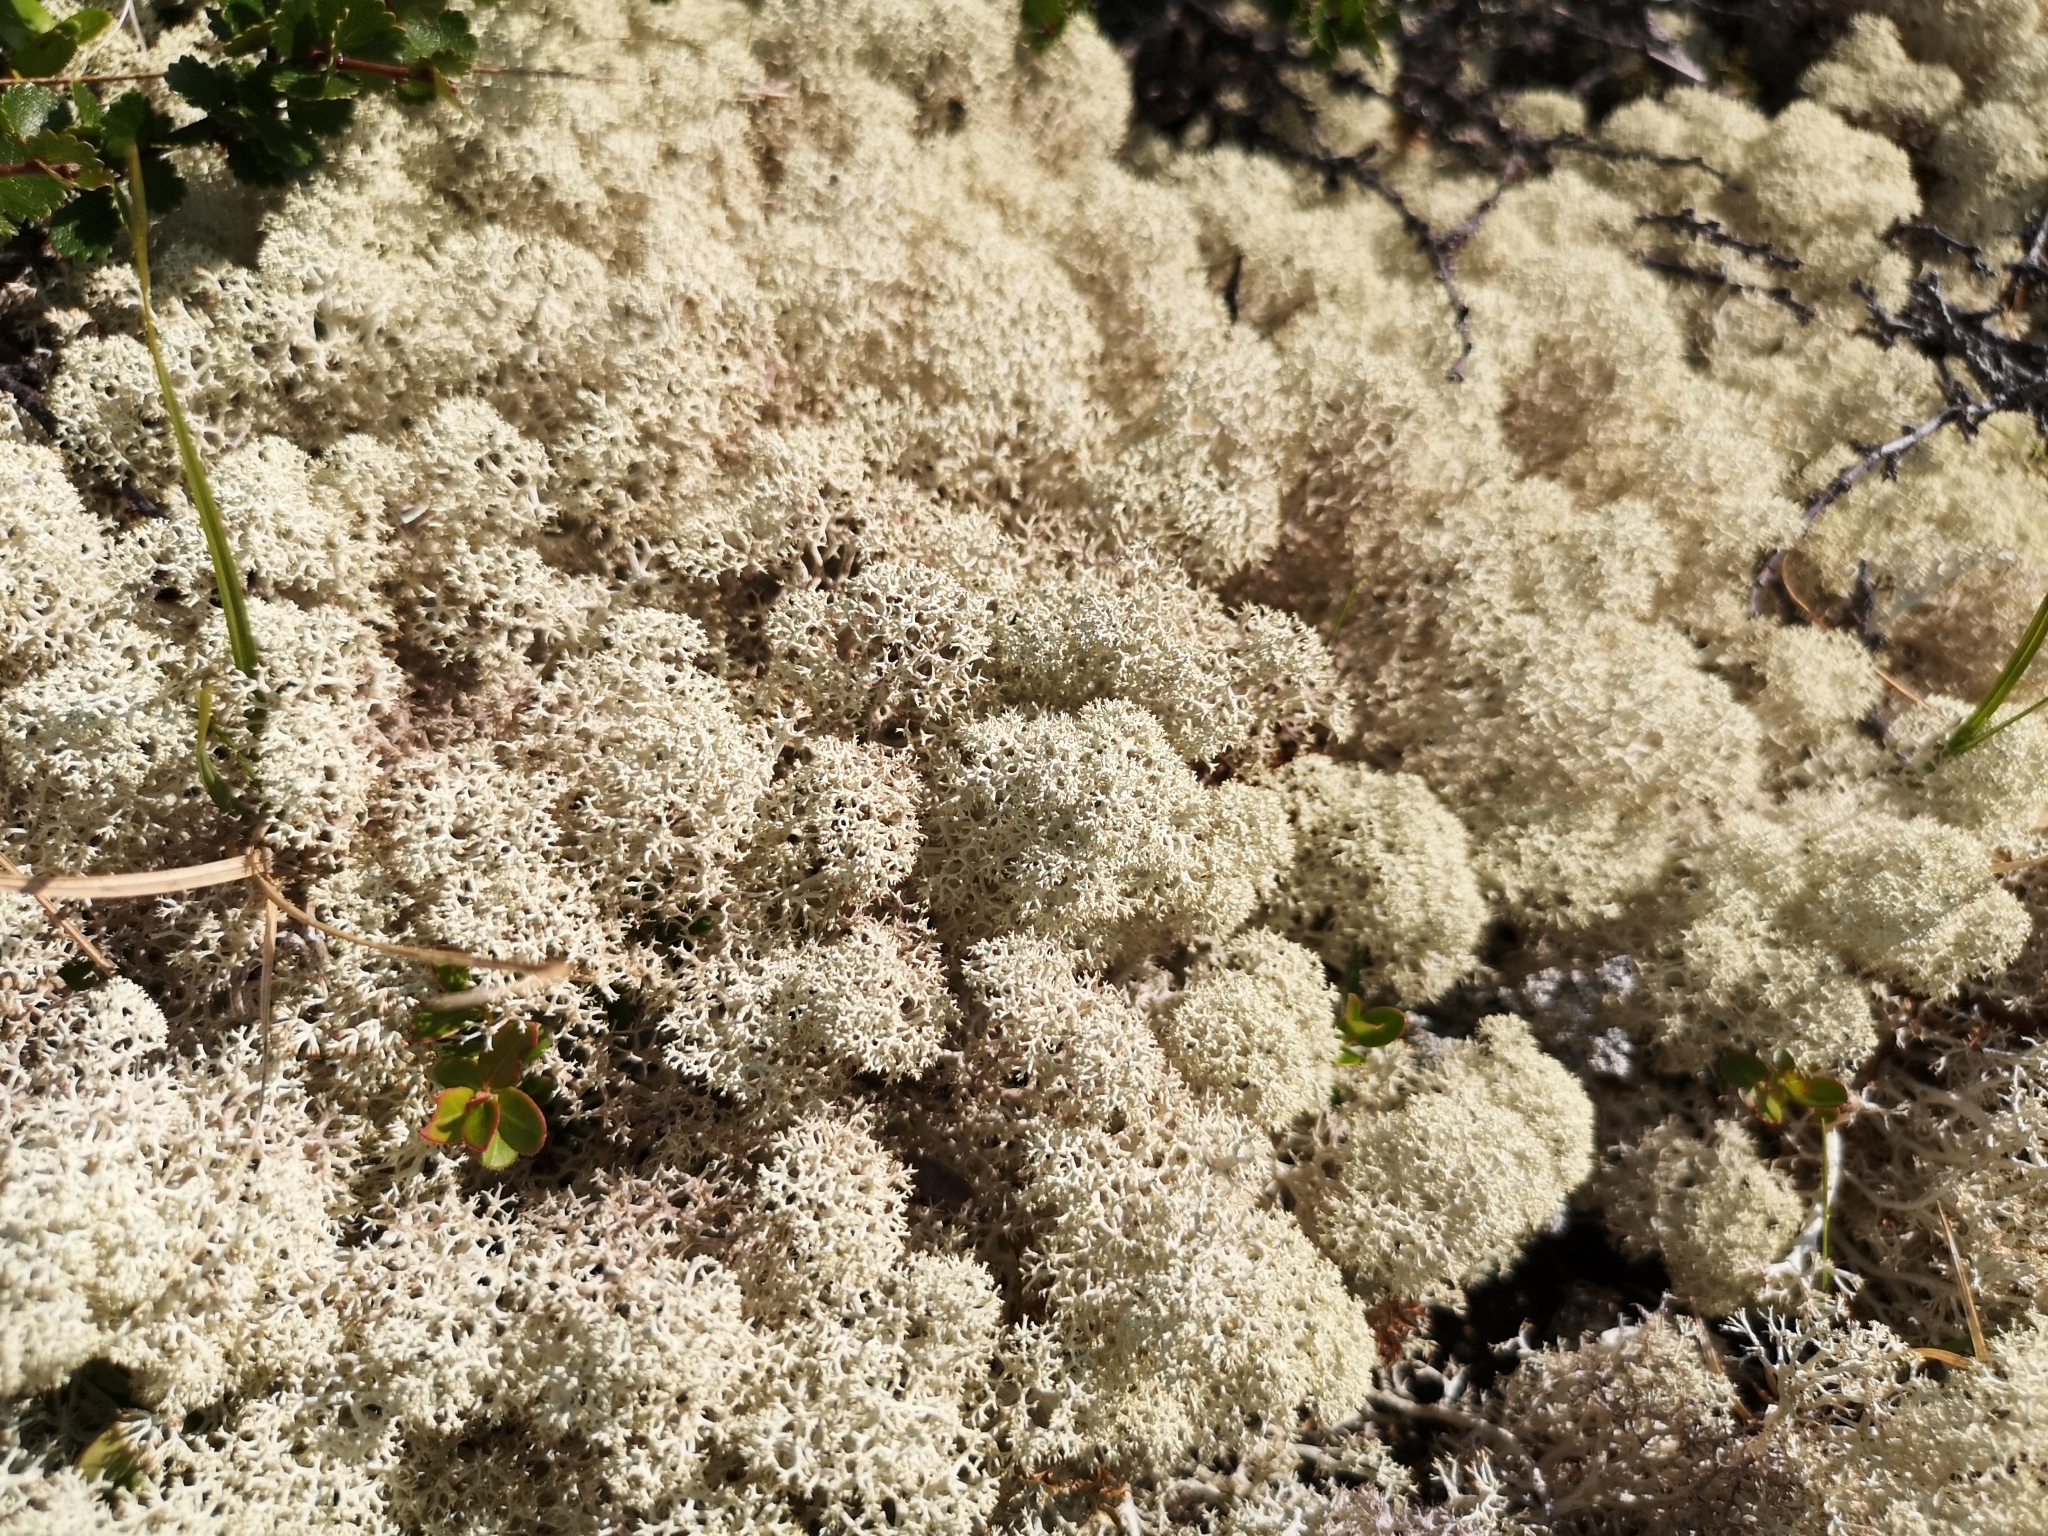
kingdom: Fungi
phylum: Ascomycota
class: Lecanoromycetes
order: Lecanorales
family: Cladoniaceae
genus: Cladonia
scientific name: Cladonia stellaris
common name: Star-tipped reindeer lichen
